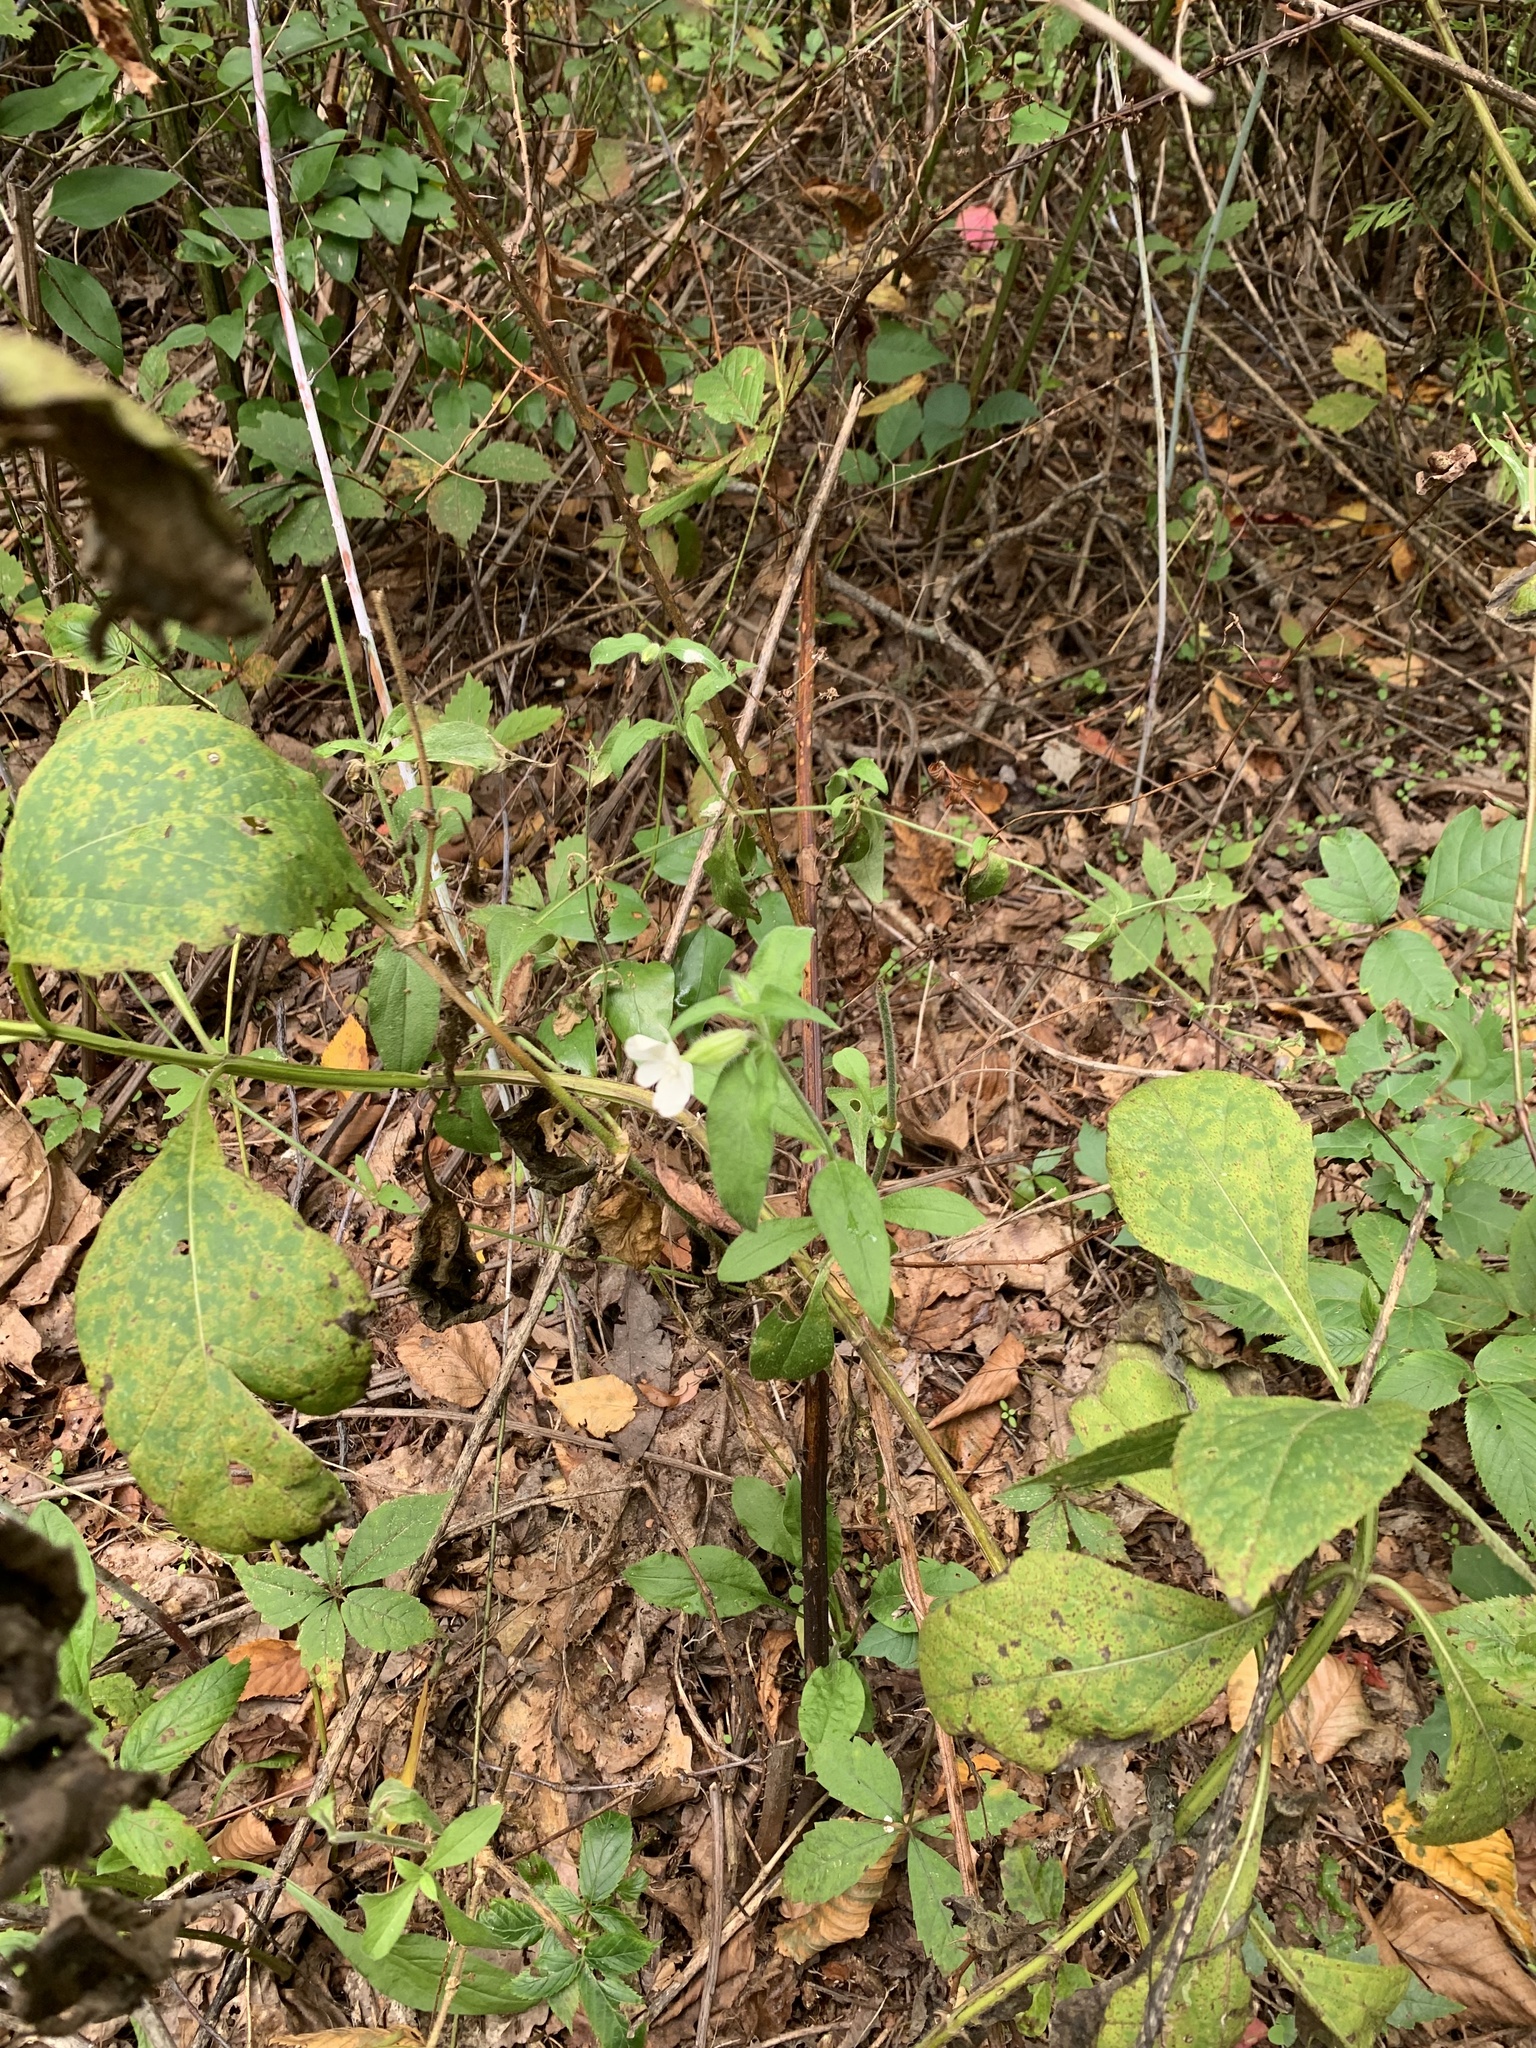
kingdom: Plantae
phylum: Tracheophyta
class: Magnoliopsida
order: Caryophyllales
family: Caryophyllaceae
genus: Silene
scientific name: Silene latifolia
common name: White campion
